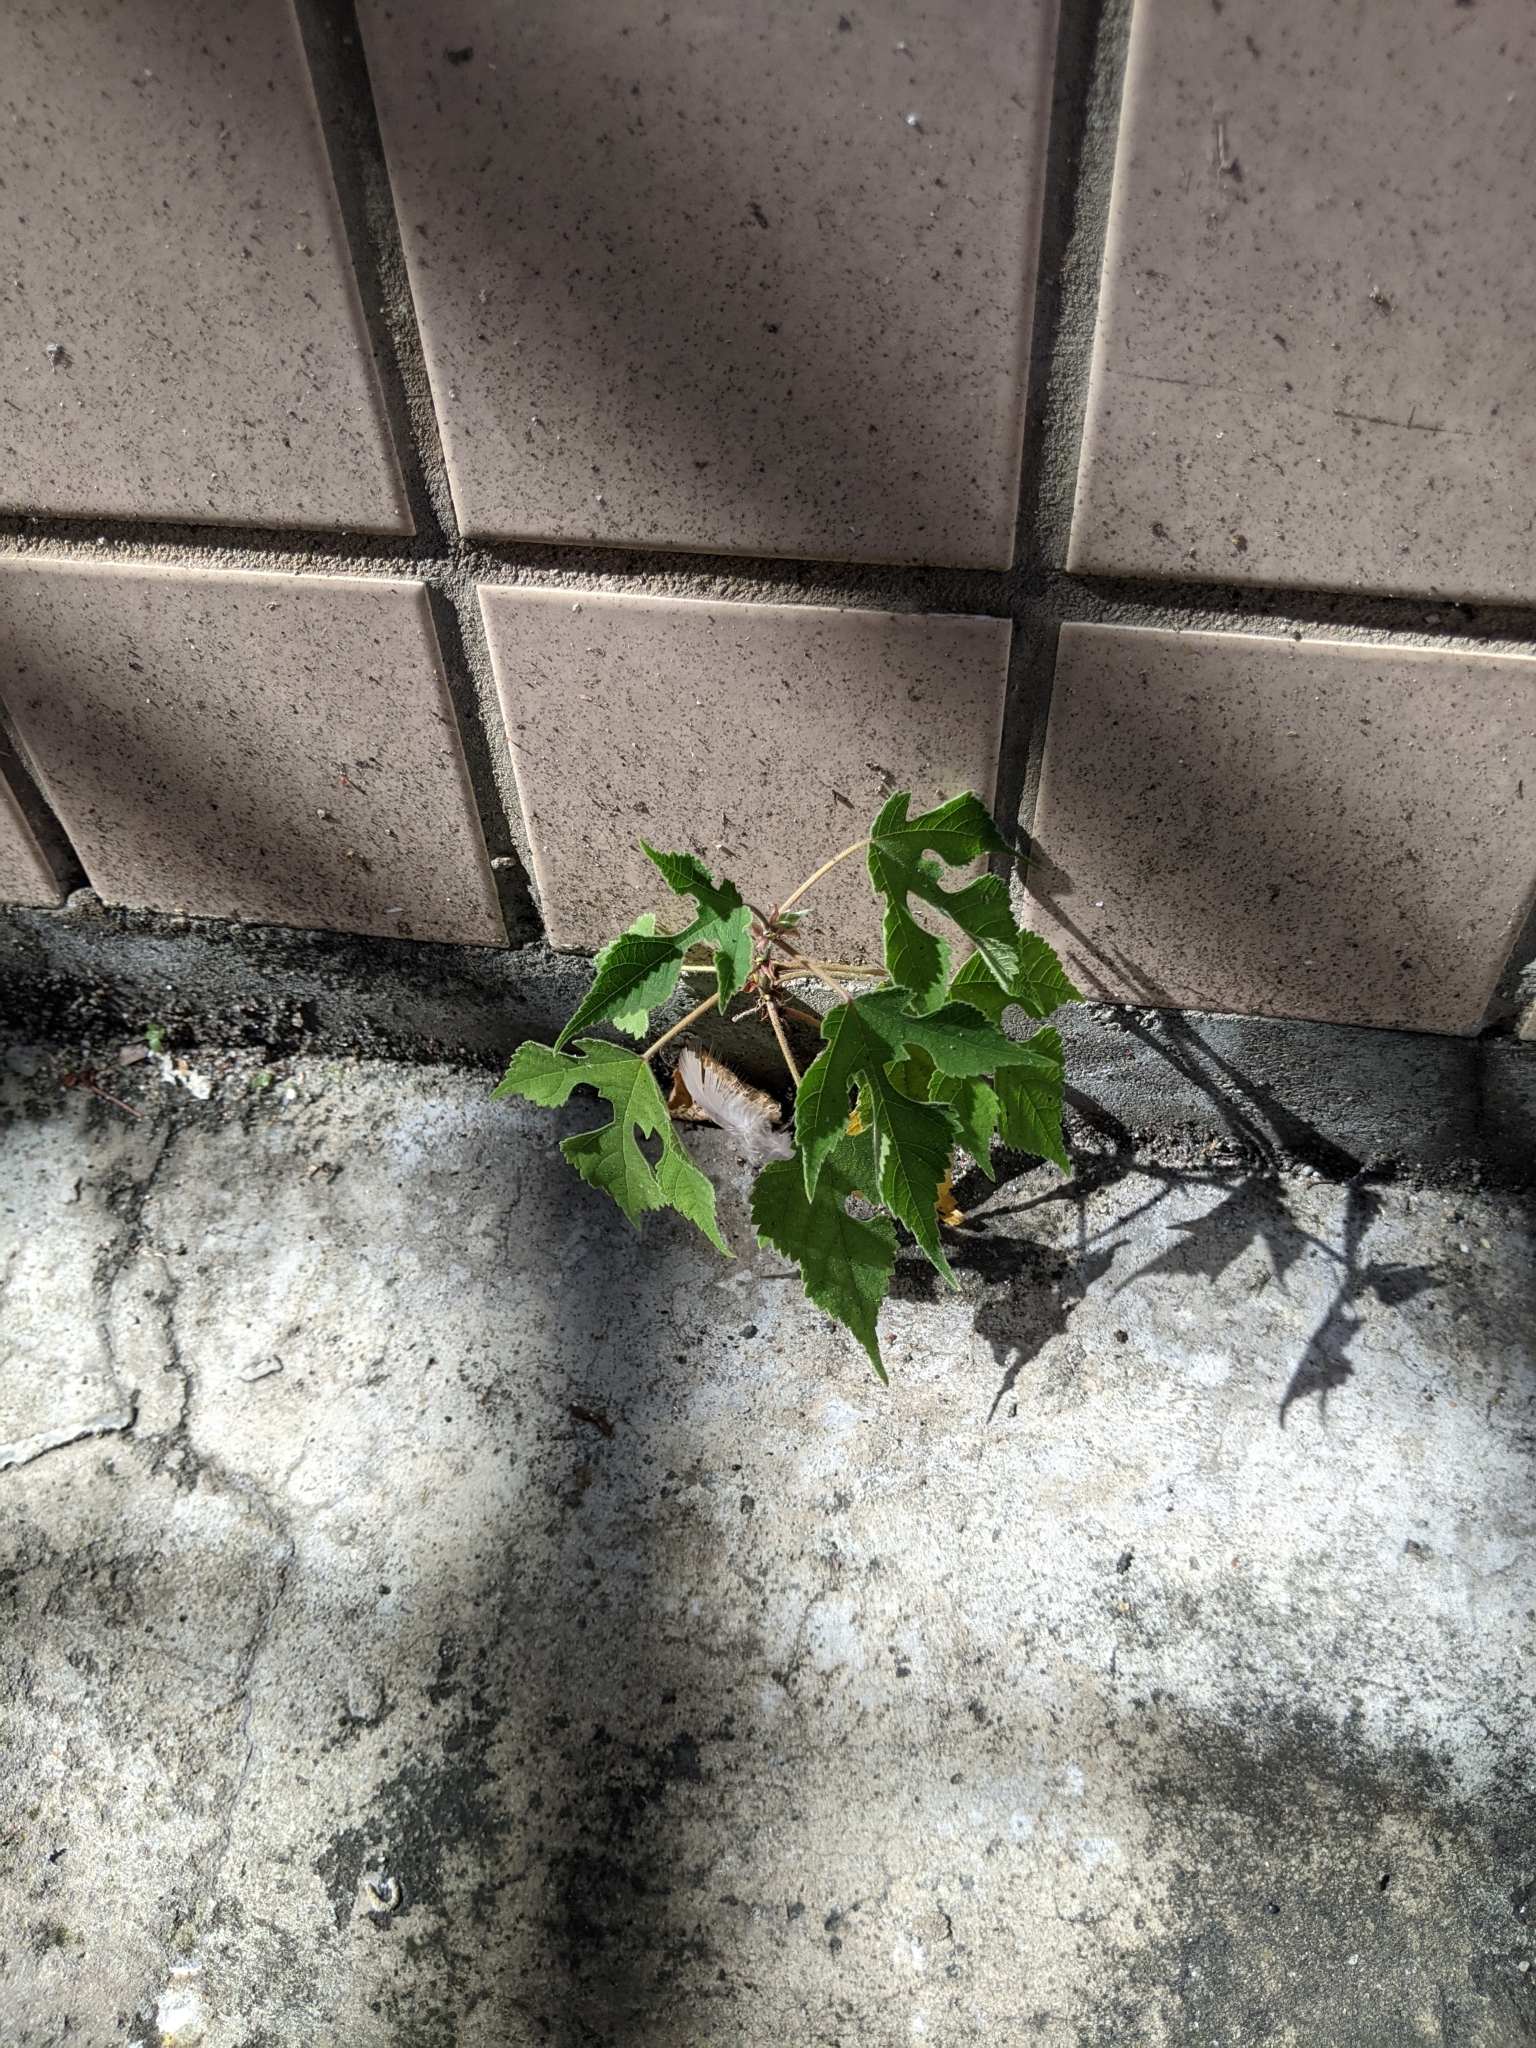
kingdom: Plantae
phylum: Tracheophyta
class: Magnoliopsida
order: Rosales
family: Moraceae
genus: Broussonetia
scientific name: Broussonetia papyrifera
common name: Paper mulberry
